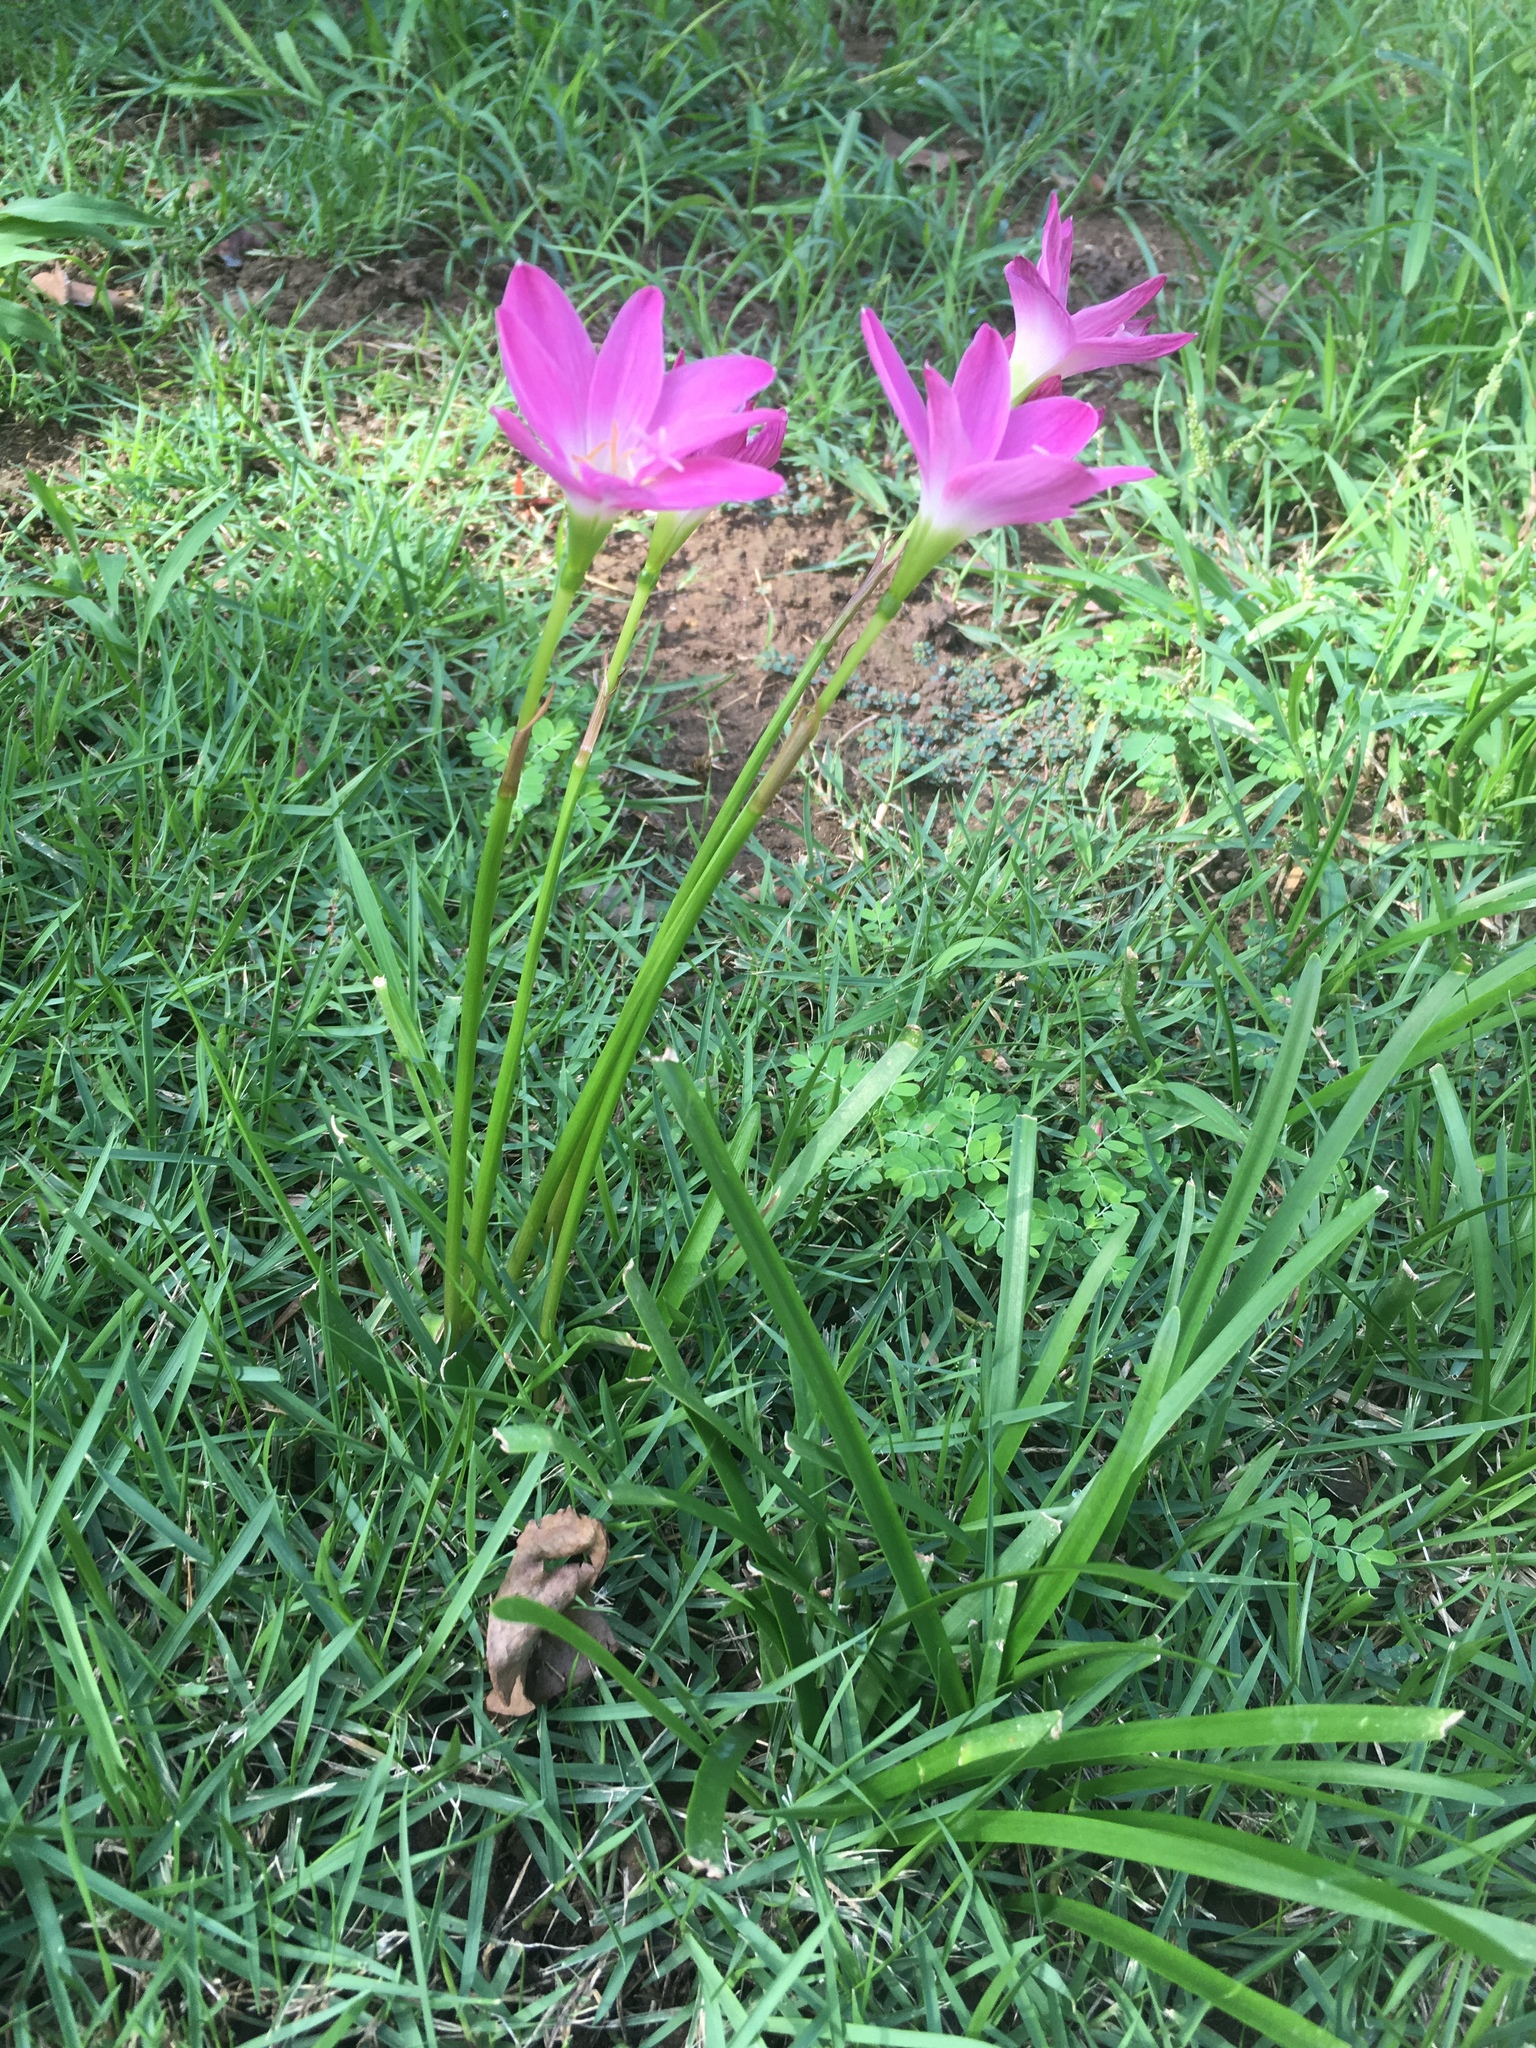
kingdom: Plantae
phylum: Tracheophyta
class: Liliopsida
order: Asparagales
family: Amaryllidaceae
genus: Zephyranthes
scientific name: Zephyranthes rosea
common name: Cuban zephyrlily
